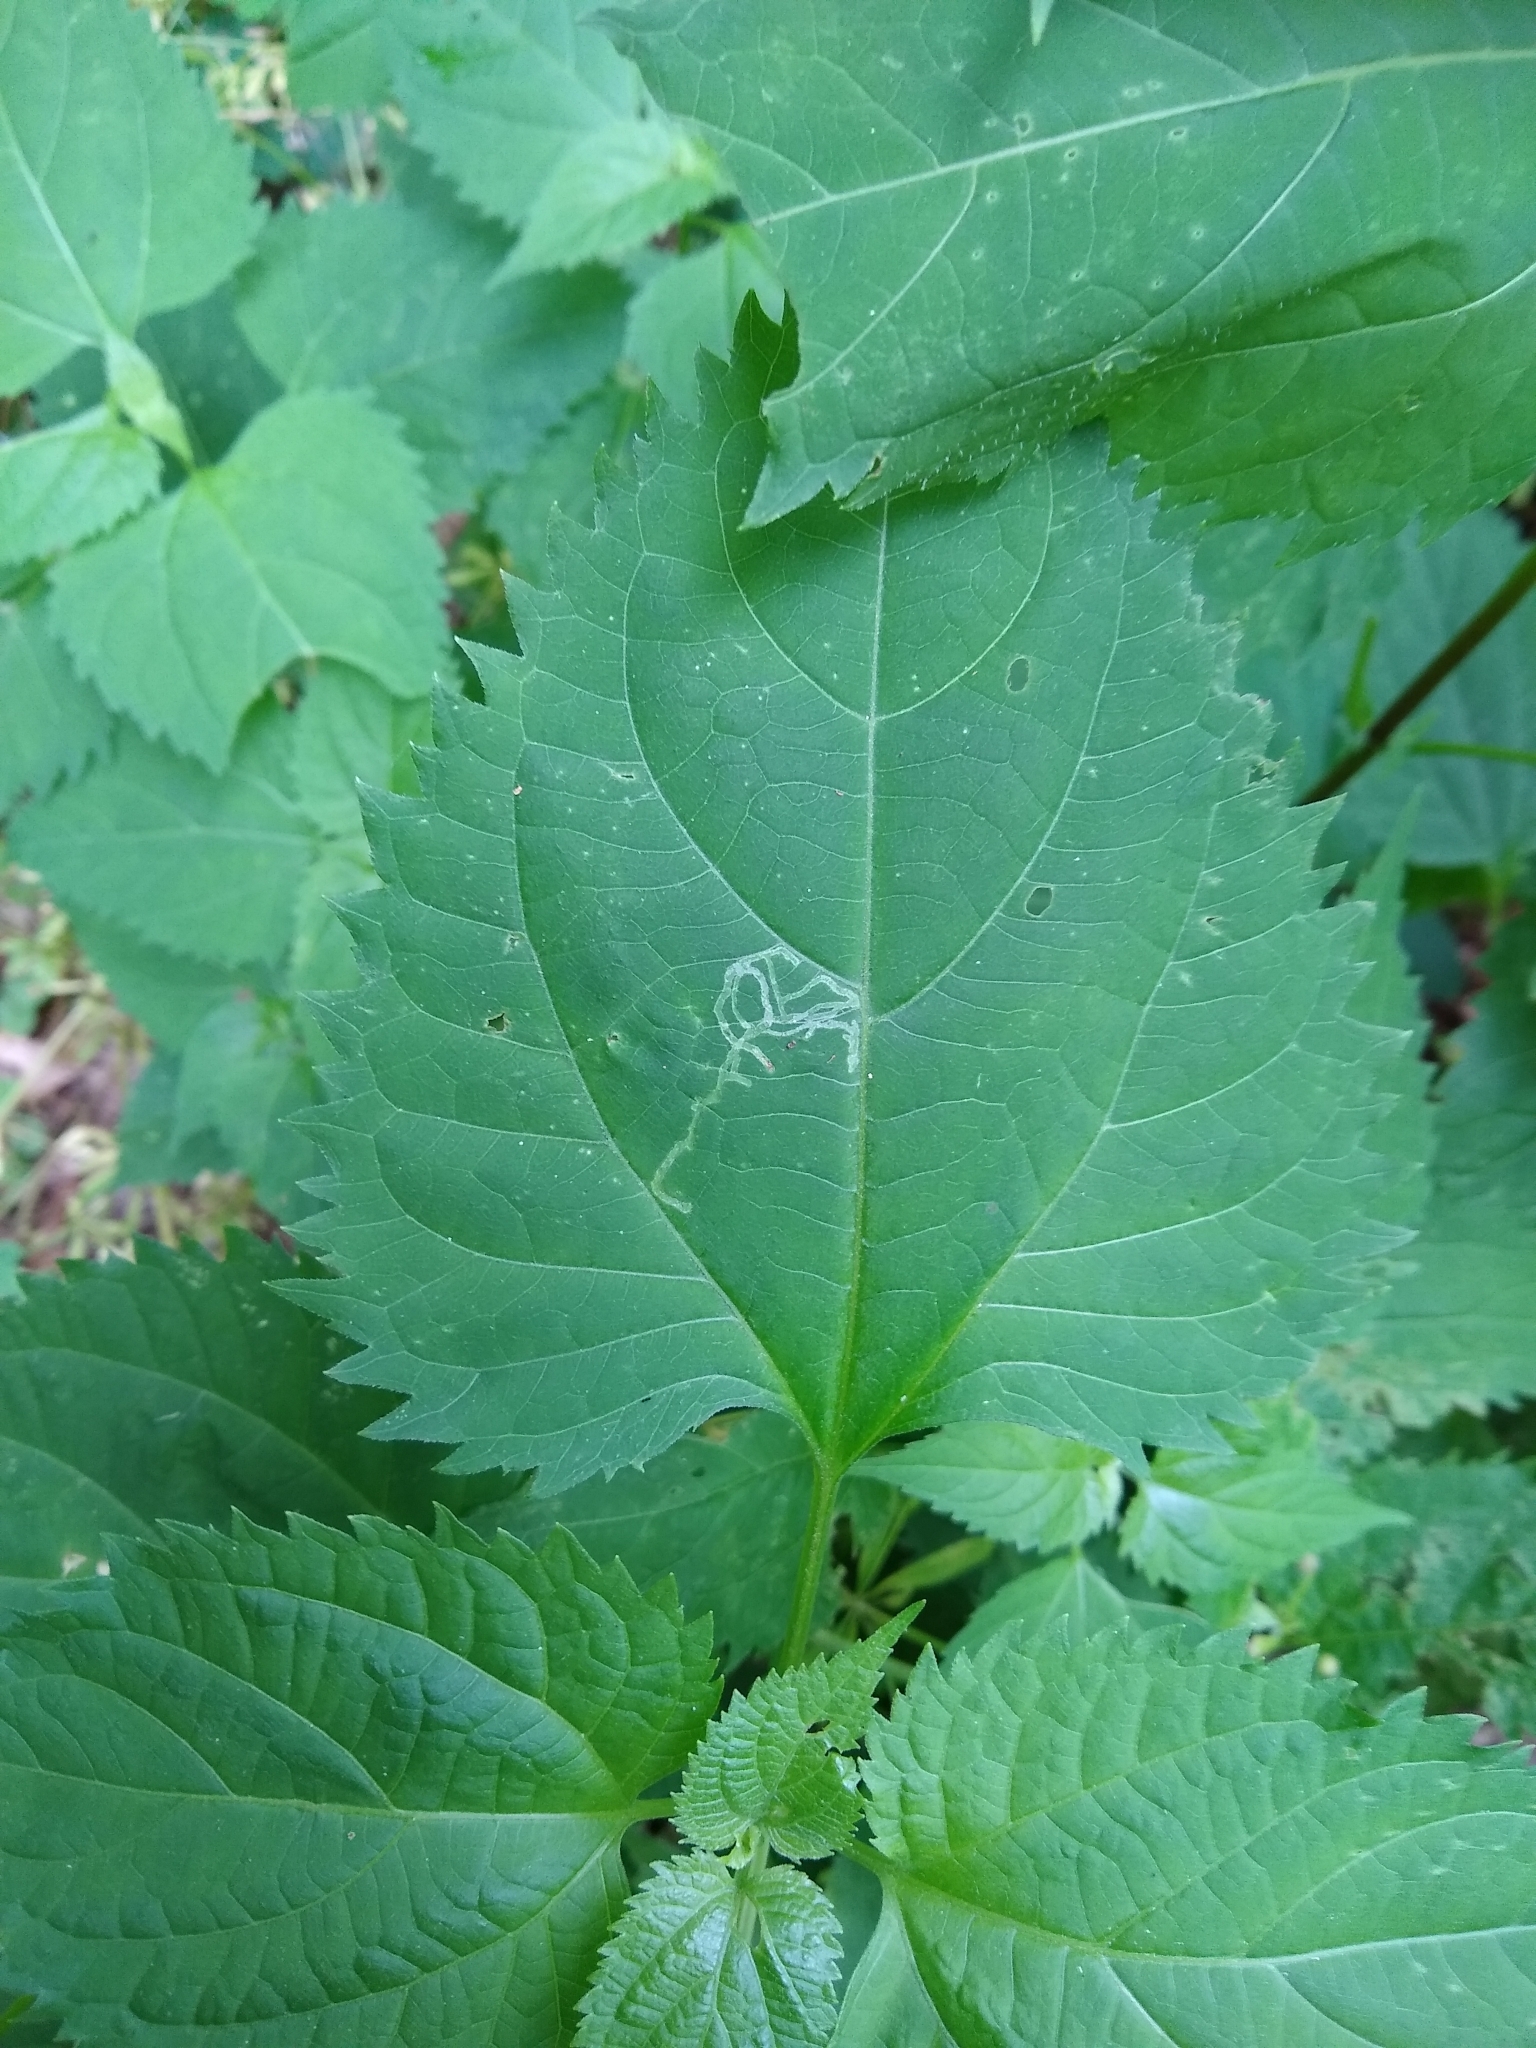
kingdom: Plantae
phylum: Tracheophyta
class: Magnoliopsida
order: Asterales
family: Asteraceae
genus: Ageratina
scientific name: Ageratina altissima
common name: White snakeroot
